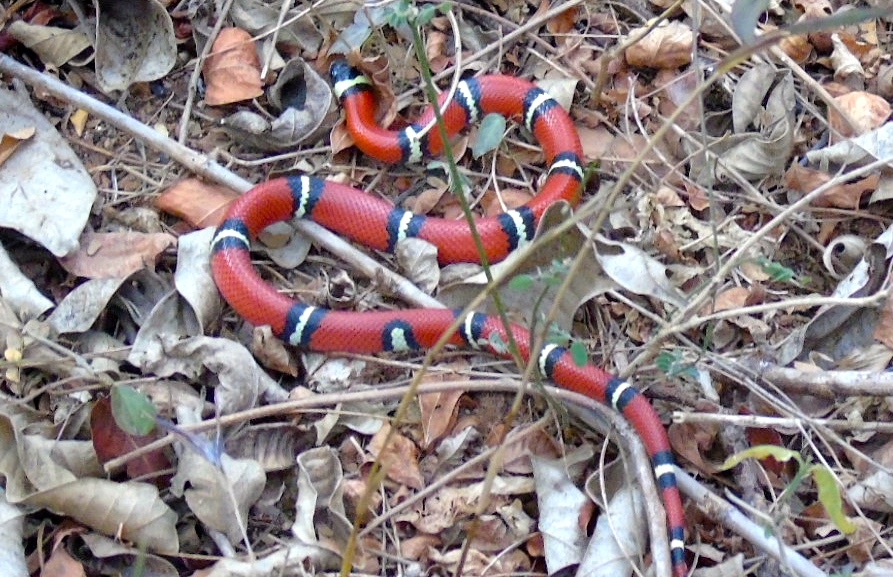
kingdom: Animalia
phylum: Chordata
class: Squamata
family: Colubridae
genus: Lampropeltis
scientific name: Lampropeltis polyzona
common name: Atlantic central american milksnake
